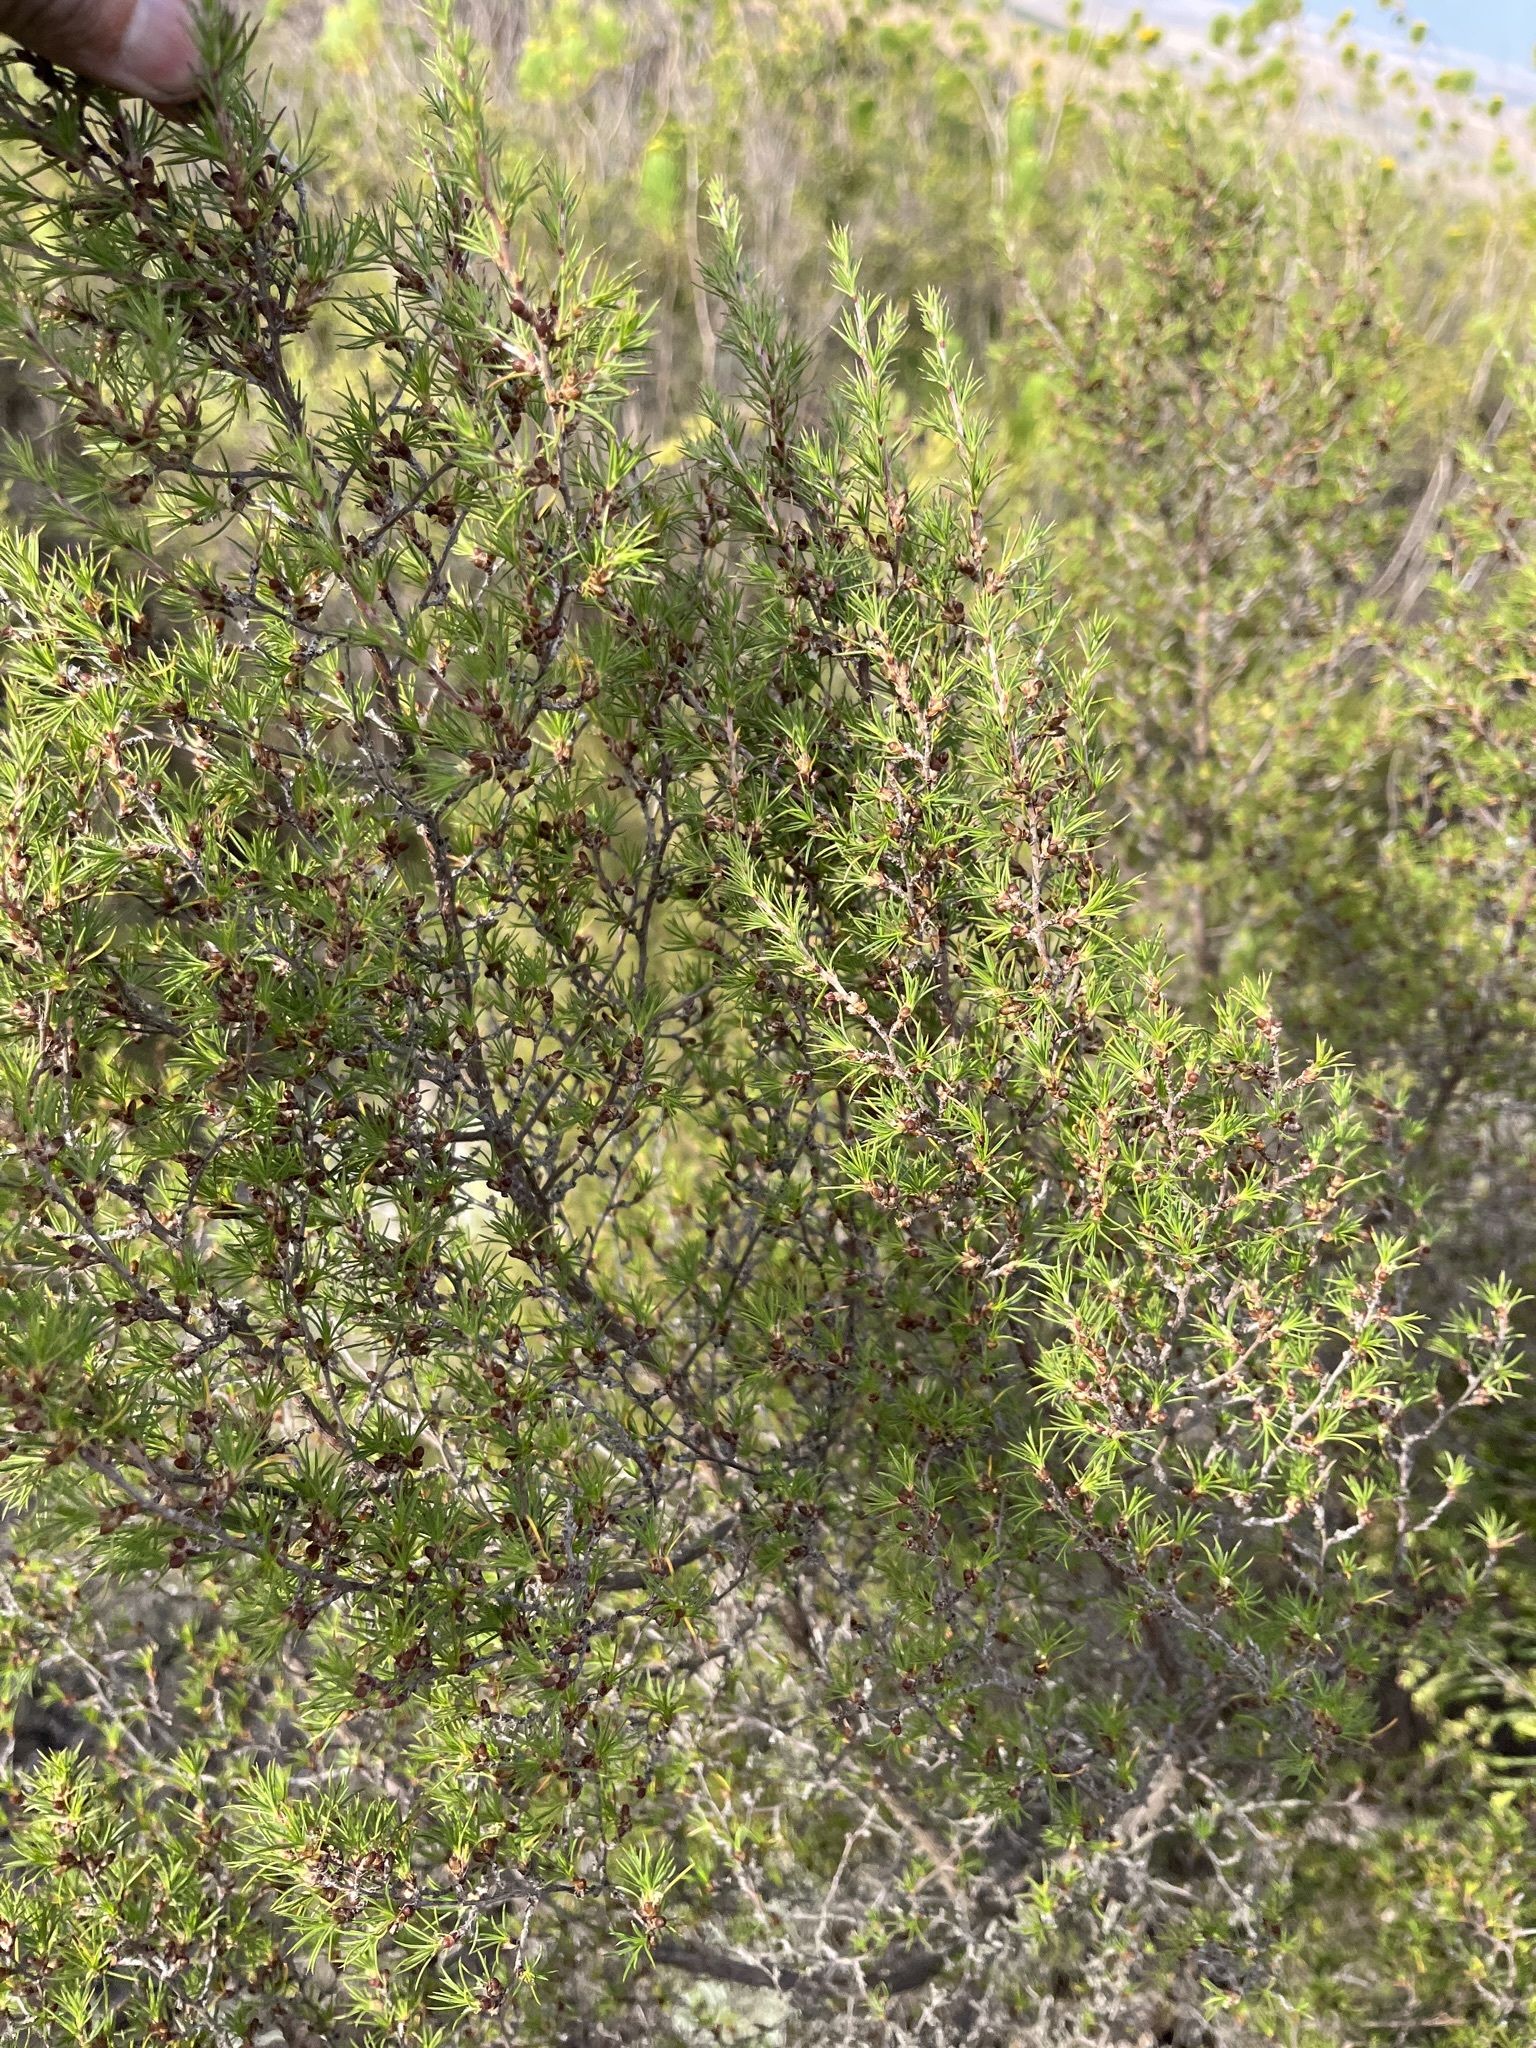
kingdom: Plantae
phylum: Tracheophyta
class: Magnoliopsida
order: Rosales
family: Rosaceae
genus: Cliffortia
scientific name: Cliffortia atrata
